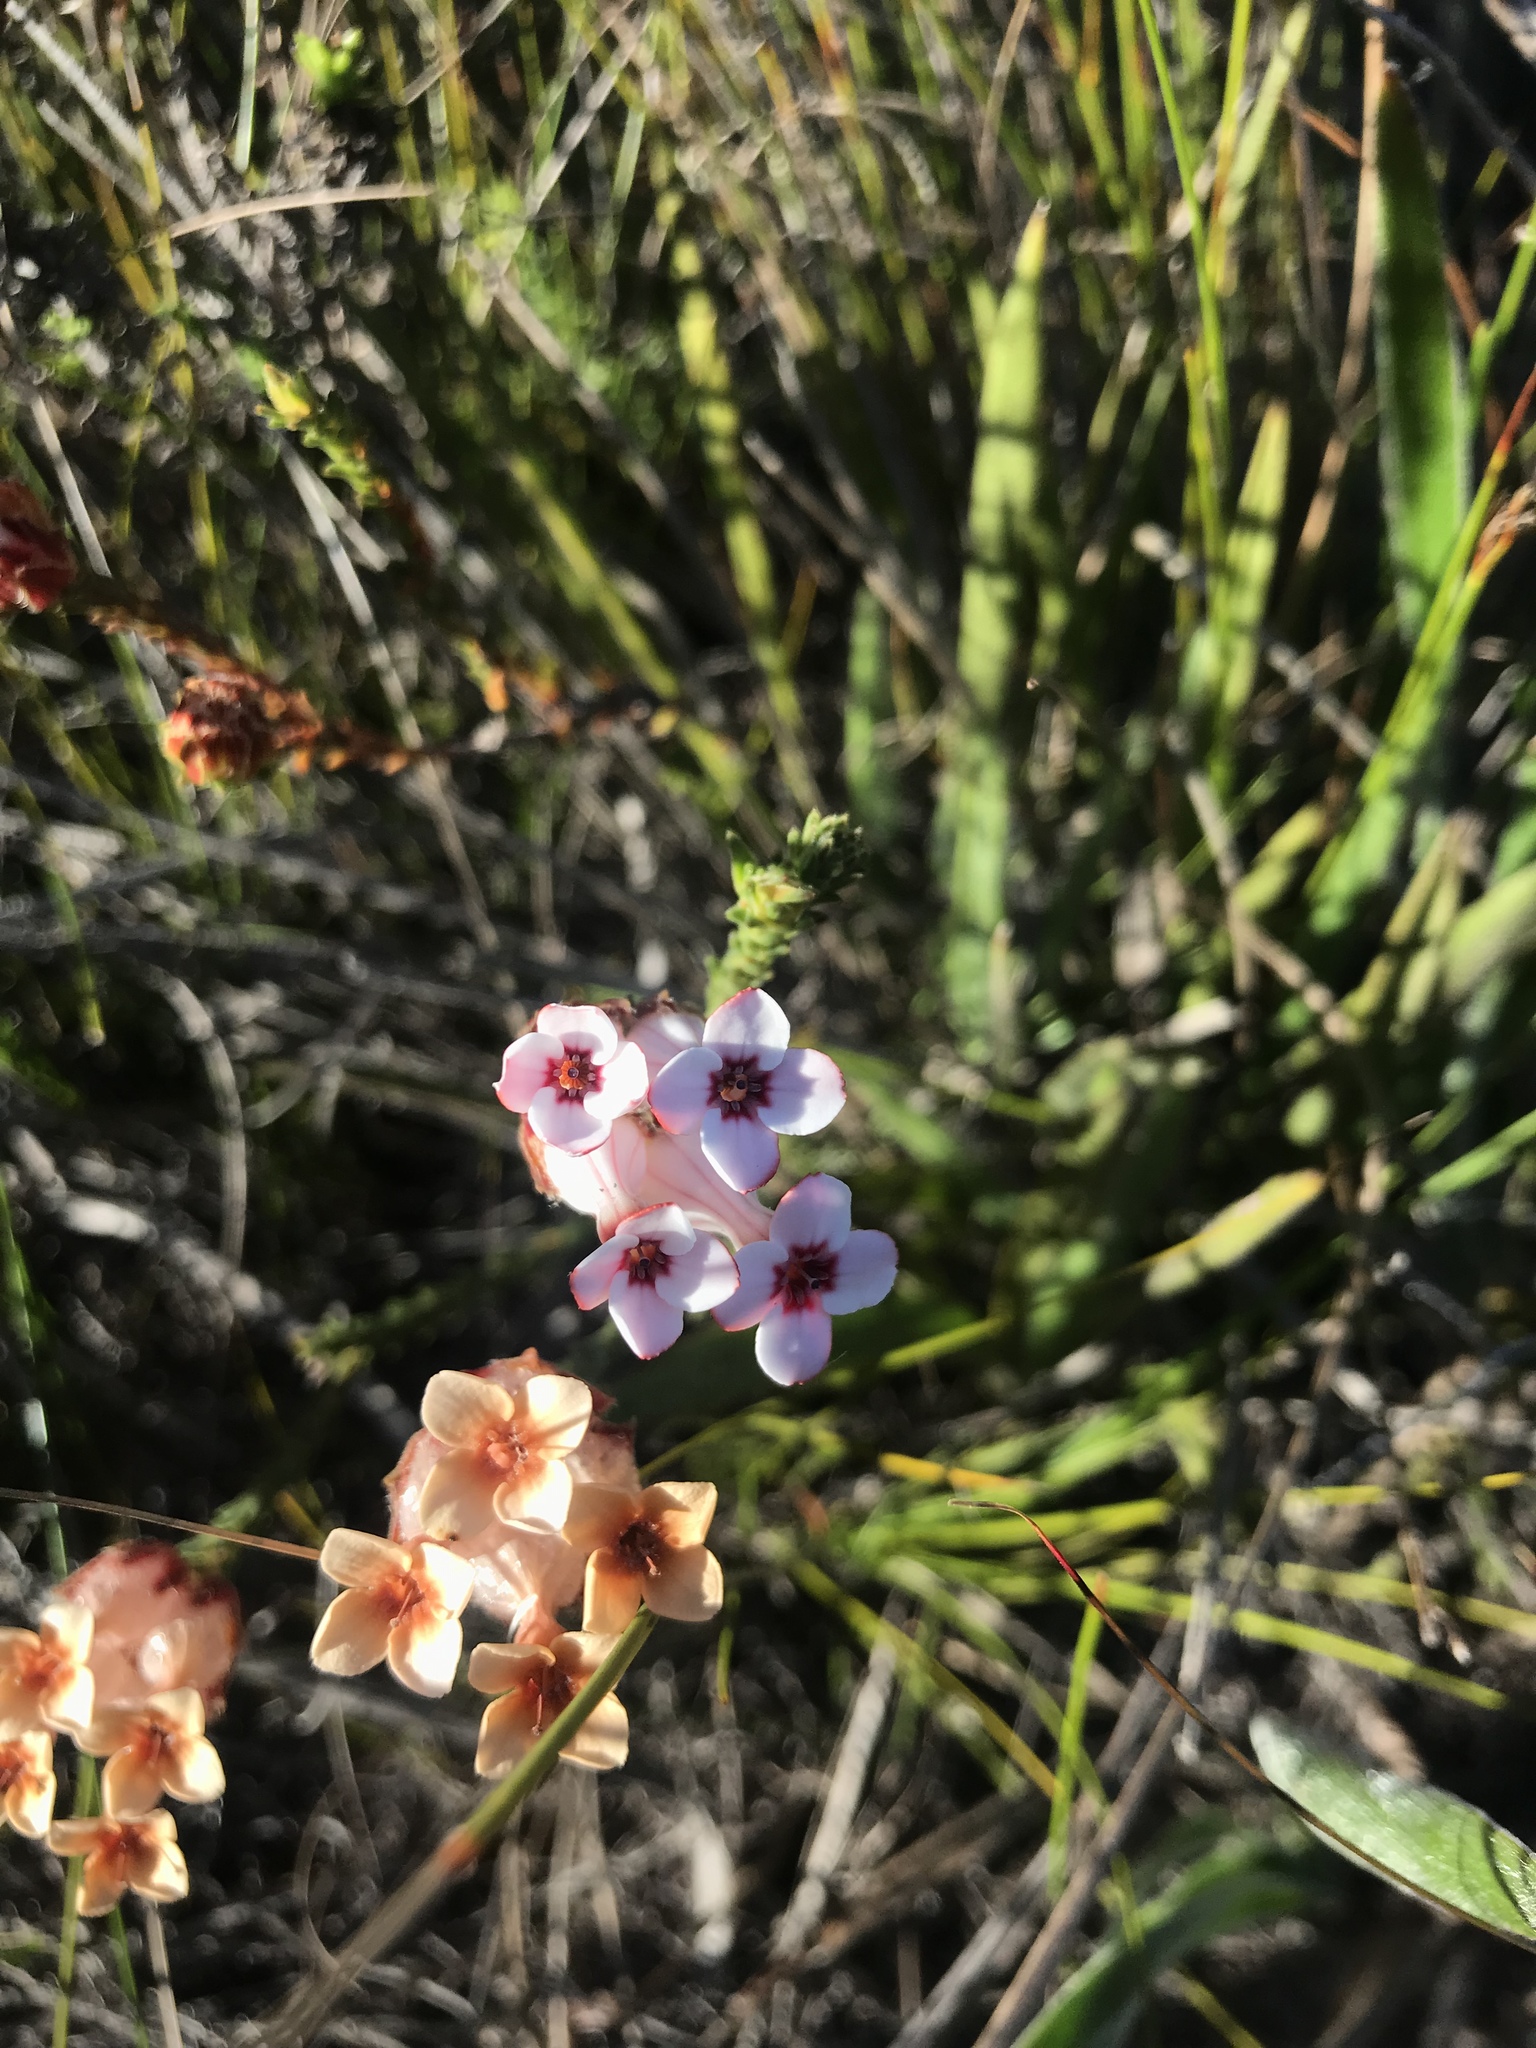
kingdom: Plantae
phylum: Tracheophyta
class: Magnoliopsida
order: Ericales
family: Ericaceae
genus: Erica
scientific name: Erica ampullacea
